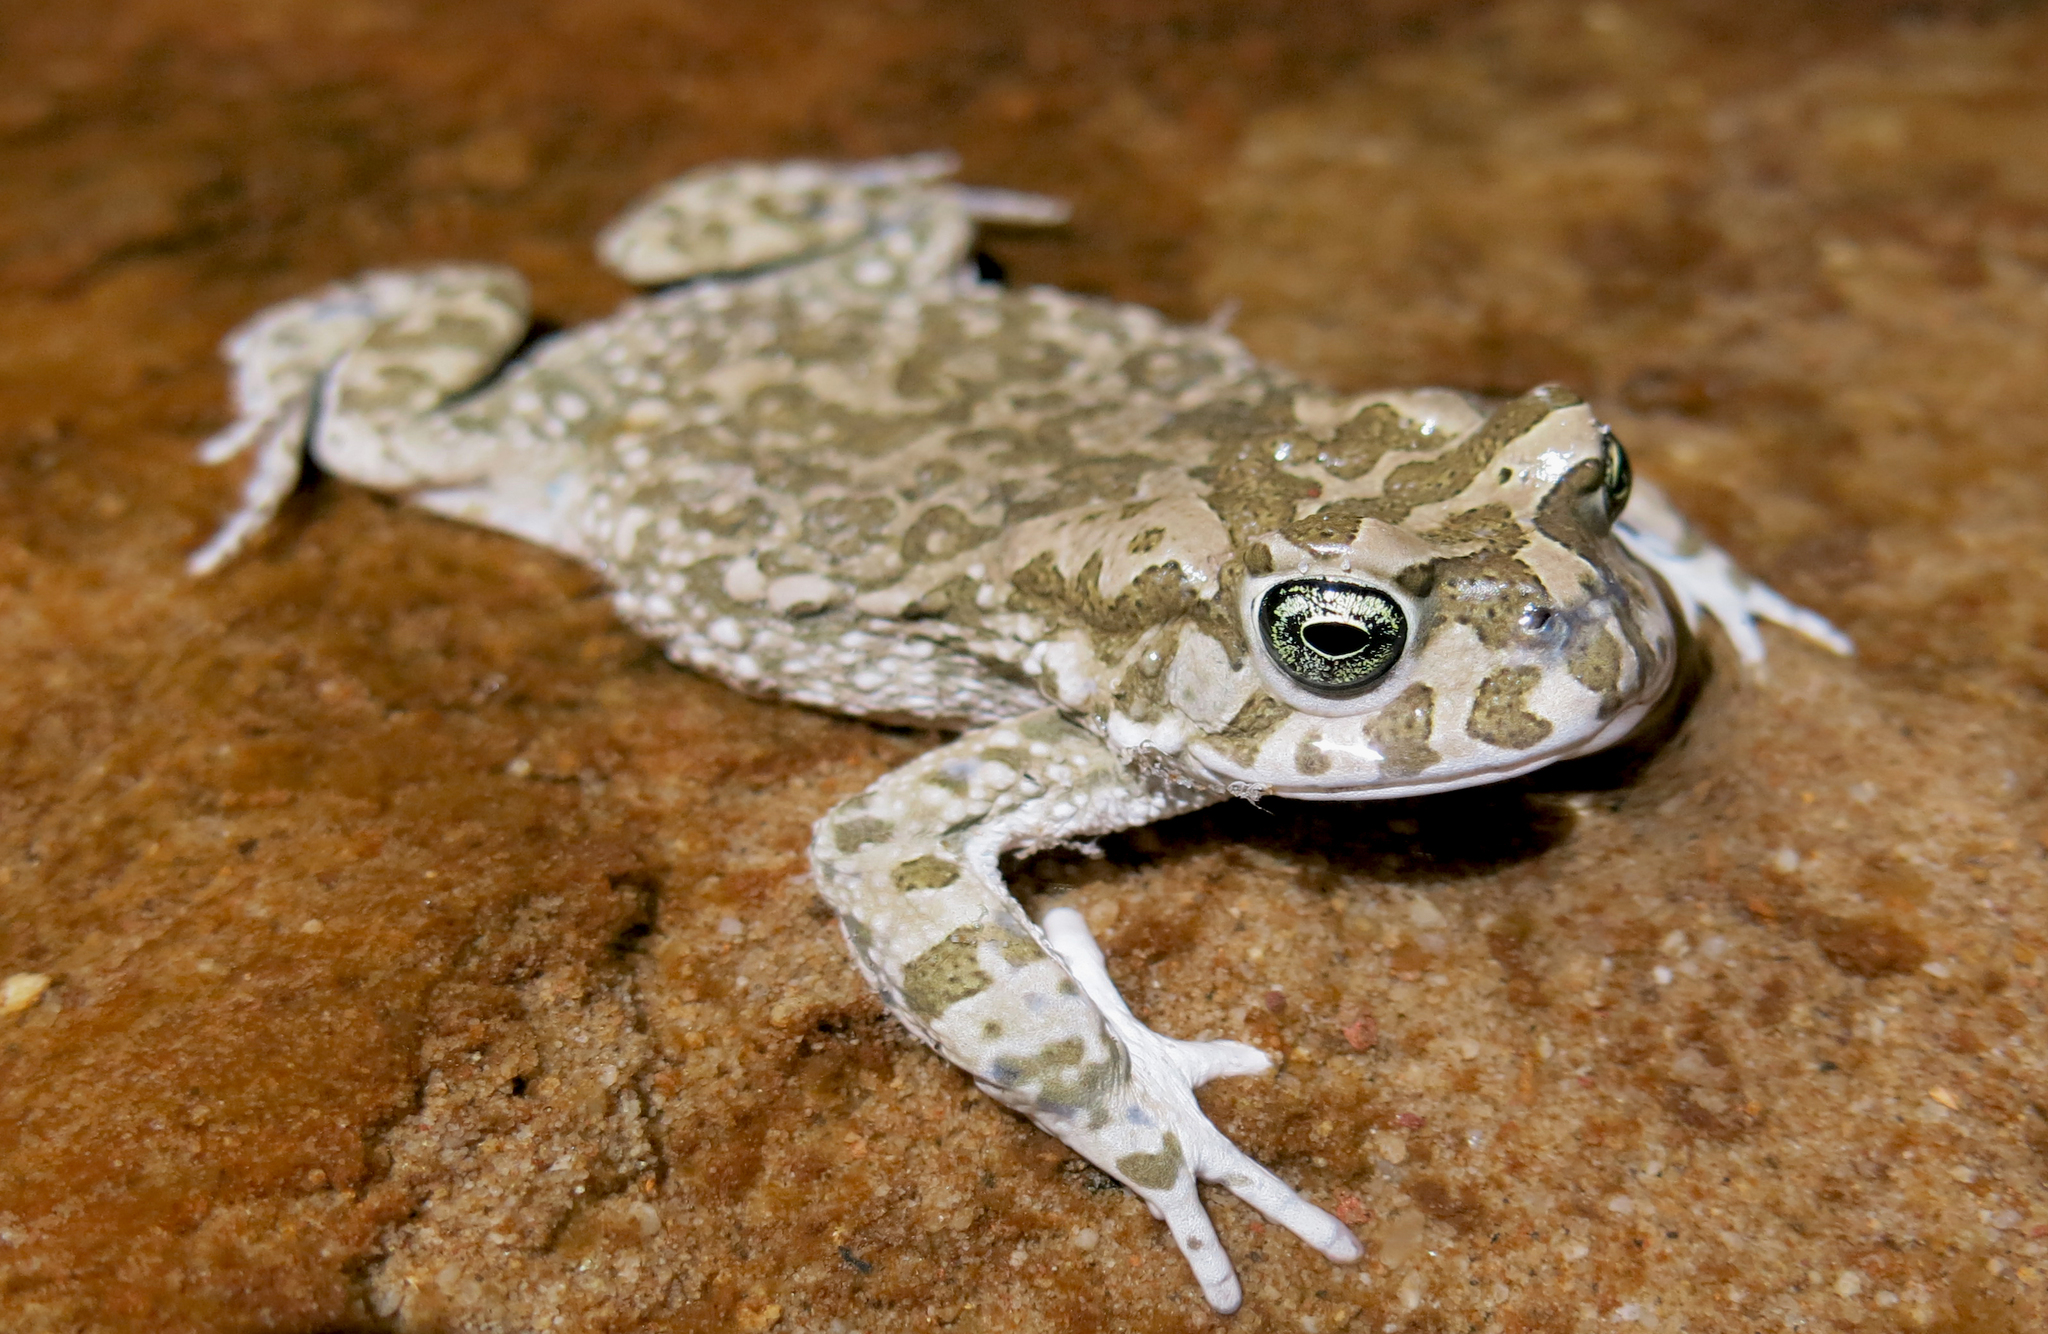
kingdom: Animalia
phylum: Chordata
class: Amphibia
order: Anura
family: Bufonidae
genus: Vandijkophrynus
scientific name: Vandijkophrynus gariepensis
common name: Gariep toad
